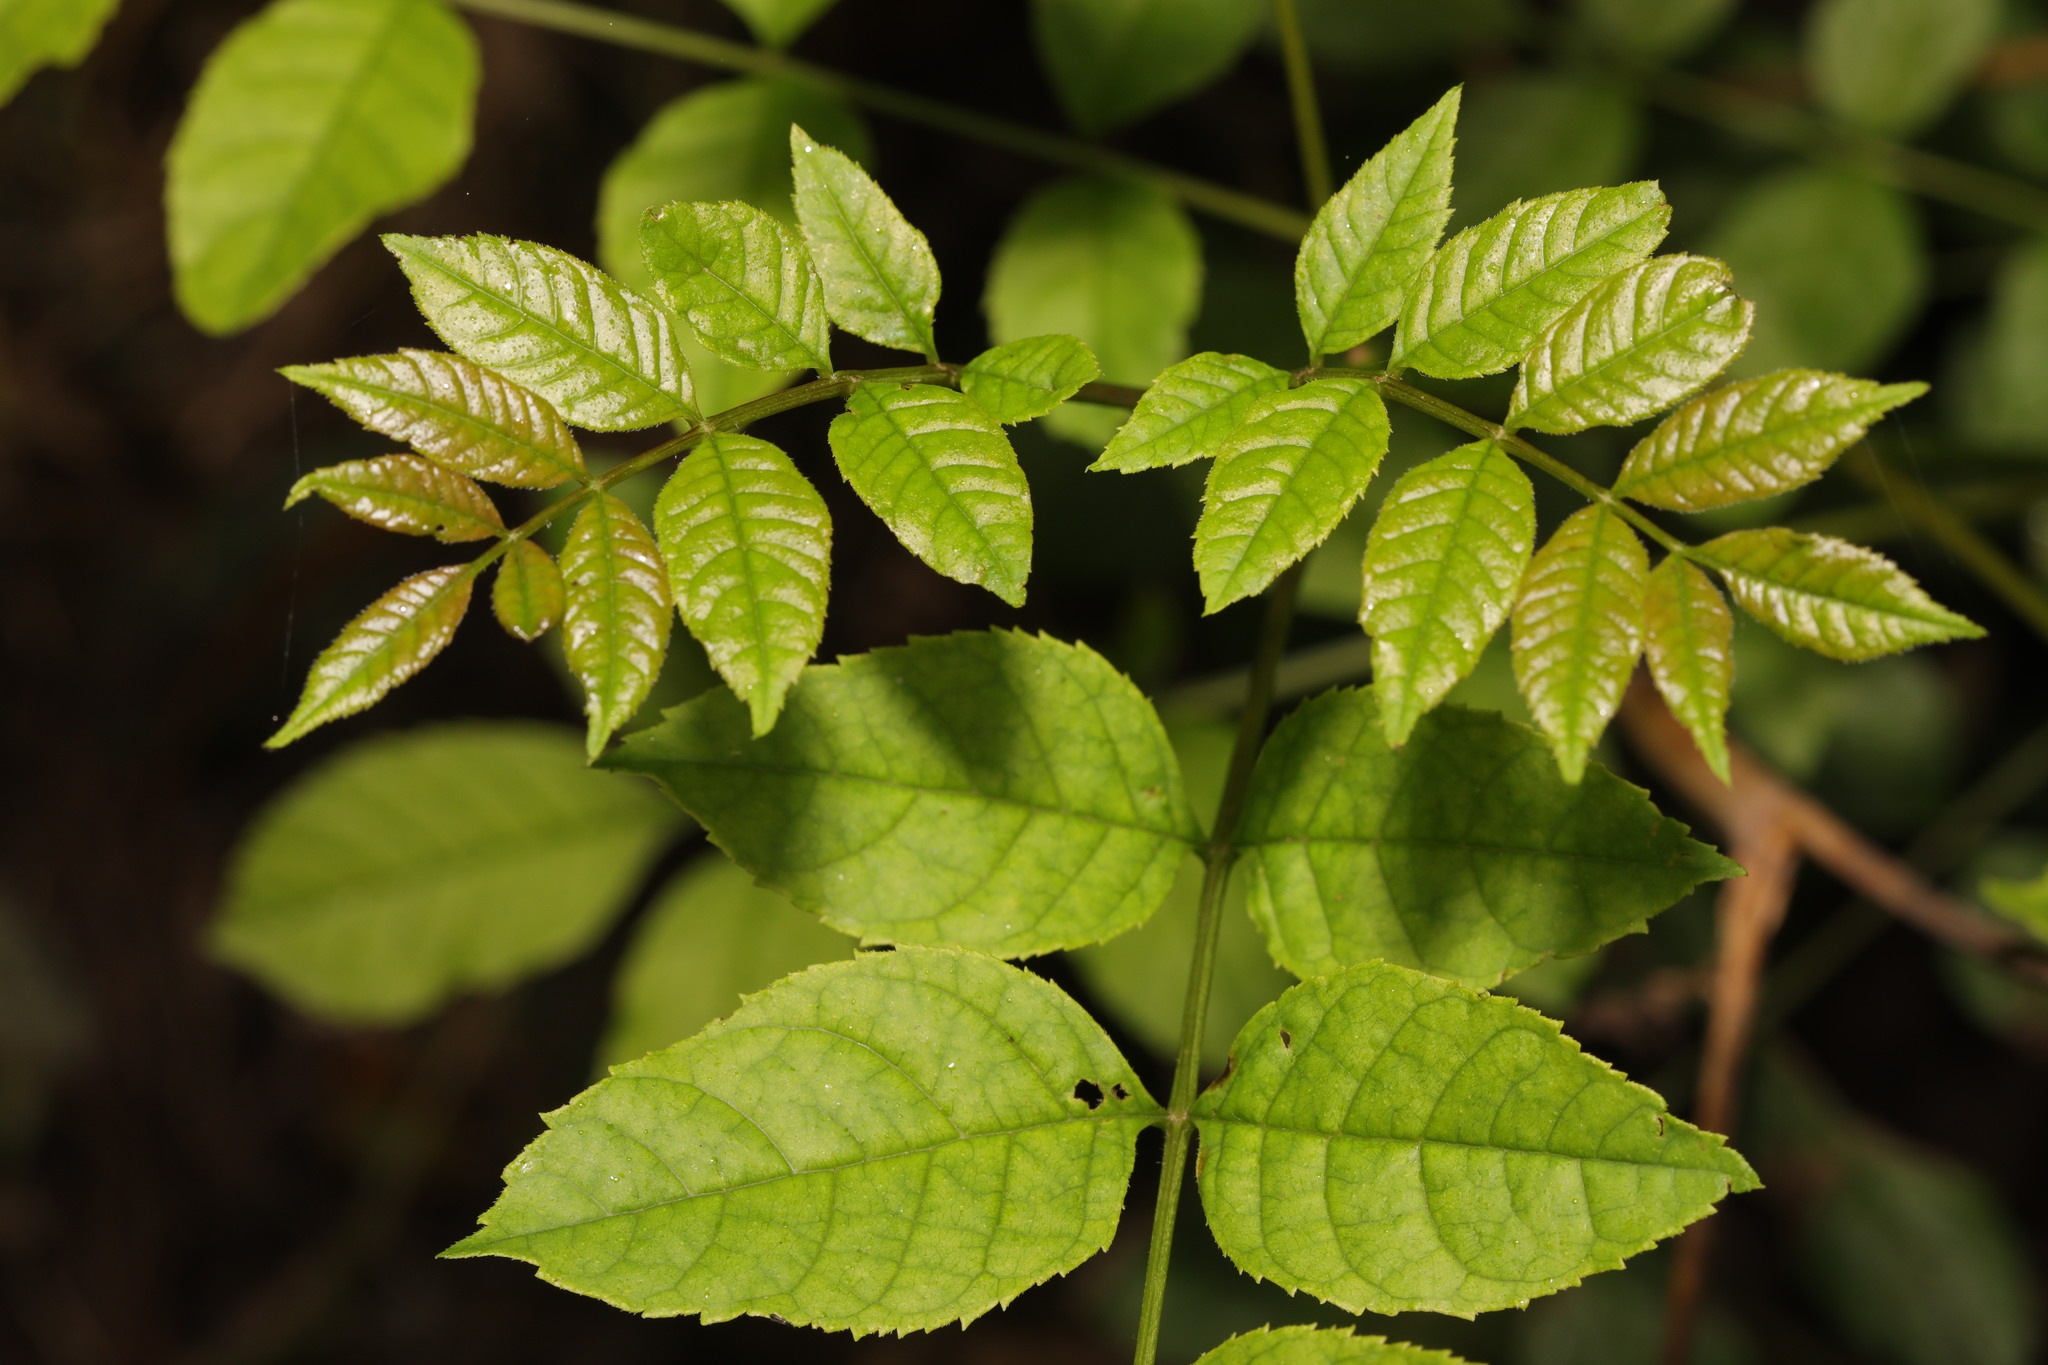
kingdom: Plantae
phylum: Tracheophyta
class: Magnoliopsida
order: Lamiales
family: Oleaceae
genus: Fraxinus
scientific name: Fraxinus excelsior
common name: European ash
